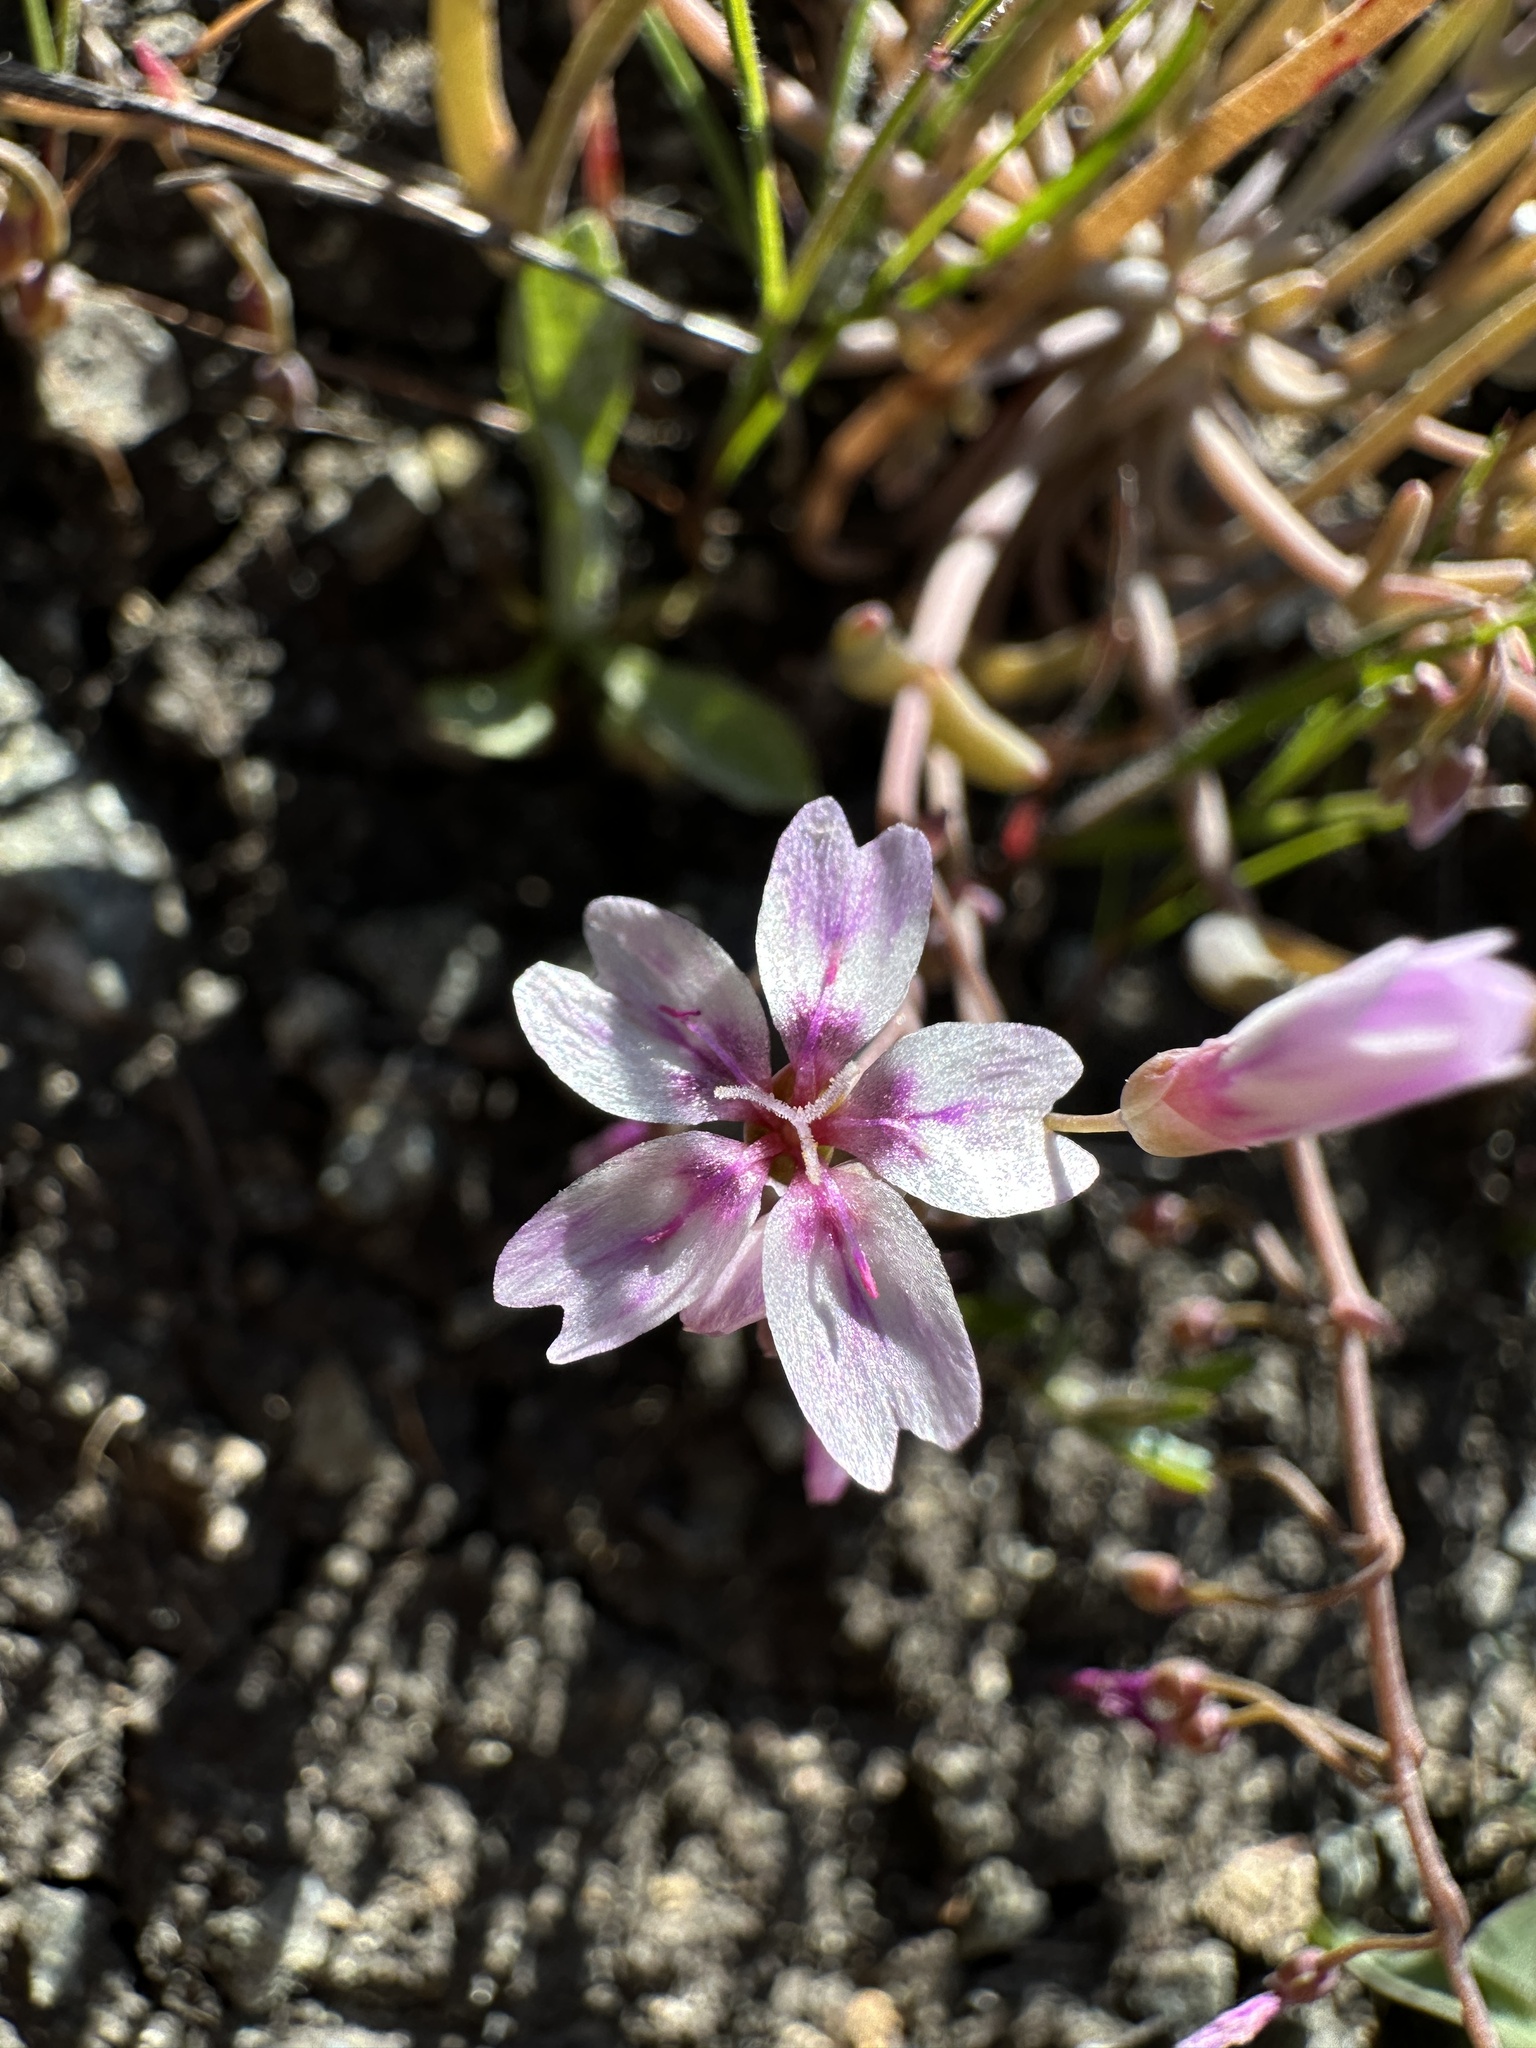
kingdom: Plantae
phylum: Tracheophyta
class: Magnoliopsida
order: Caryophyllales
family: Montiaceae
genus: Claytonia
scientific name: Claytonia gypsophiloides
